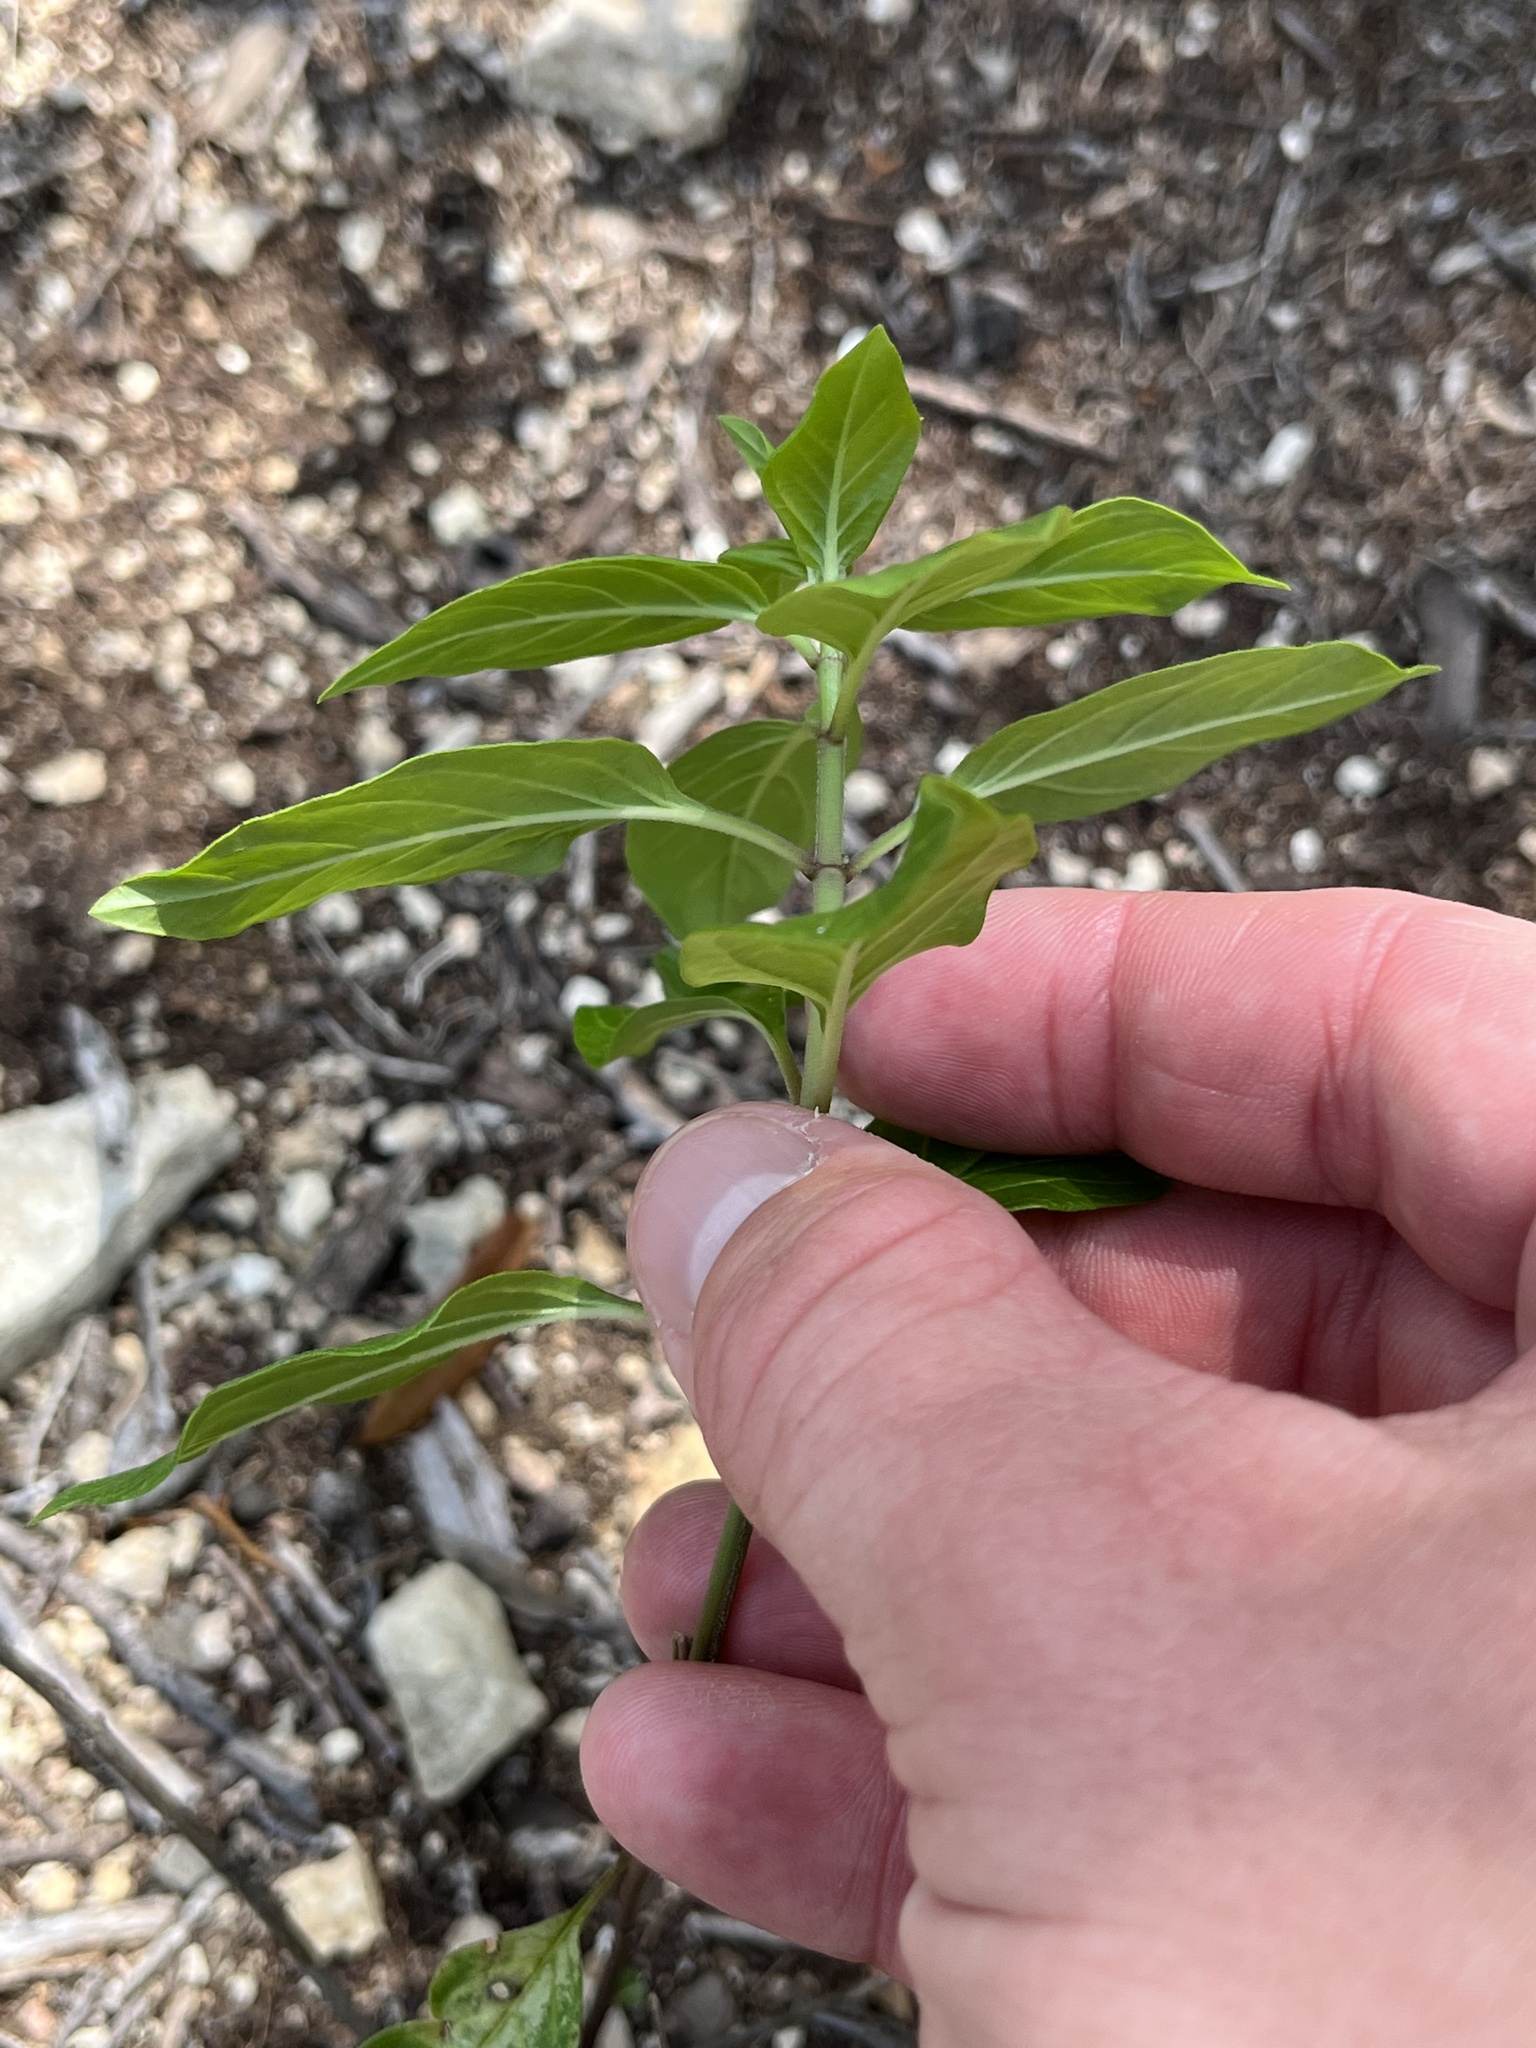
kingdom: Plantae
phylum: Tracheophyta
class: Magnoliopsida
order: Gentianales
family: Apocynaceae
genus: Asclepias
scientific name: Asclepias texana
